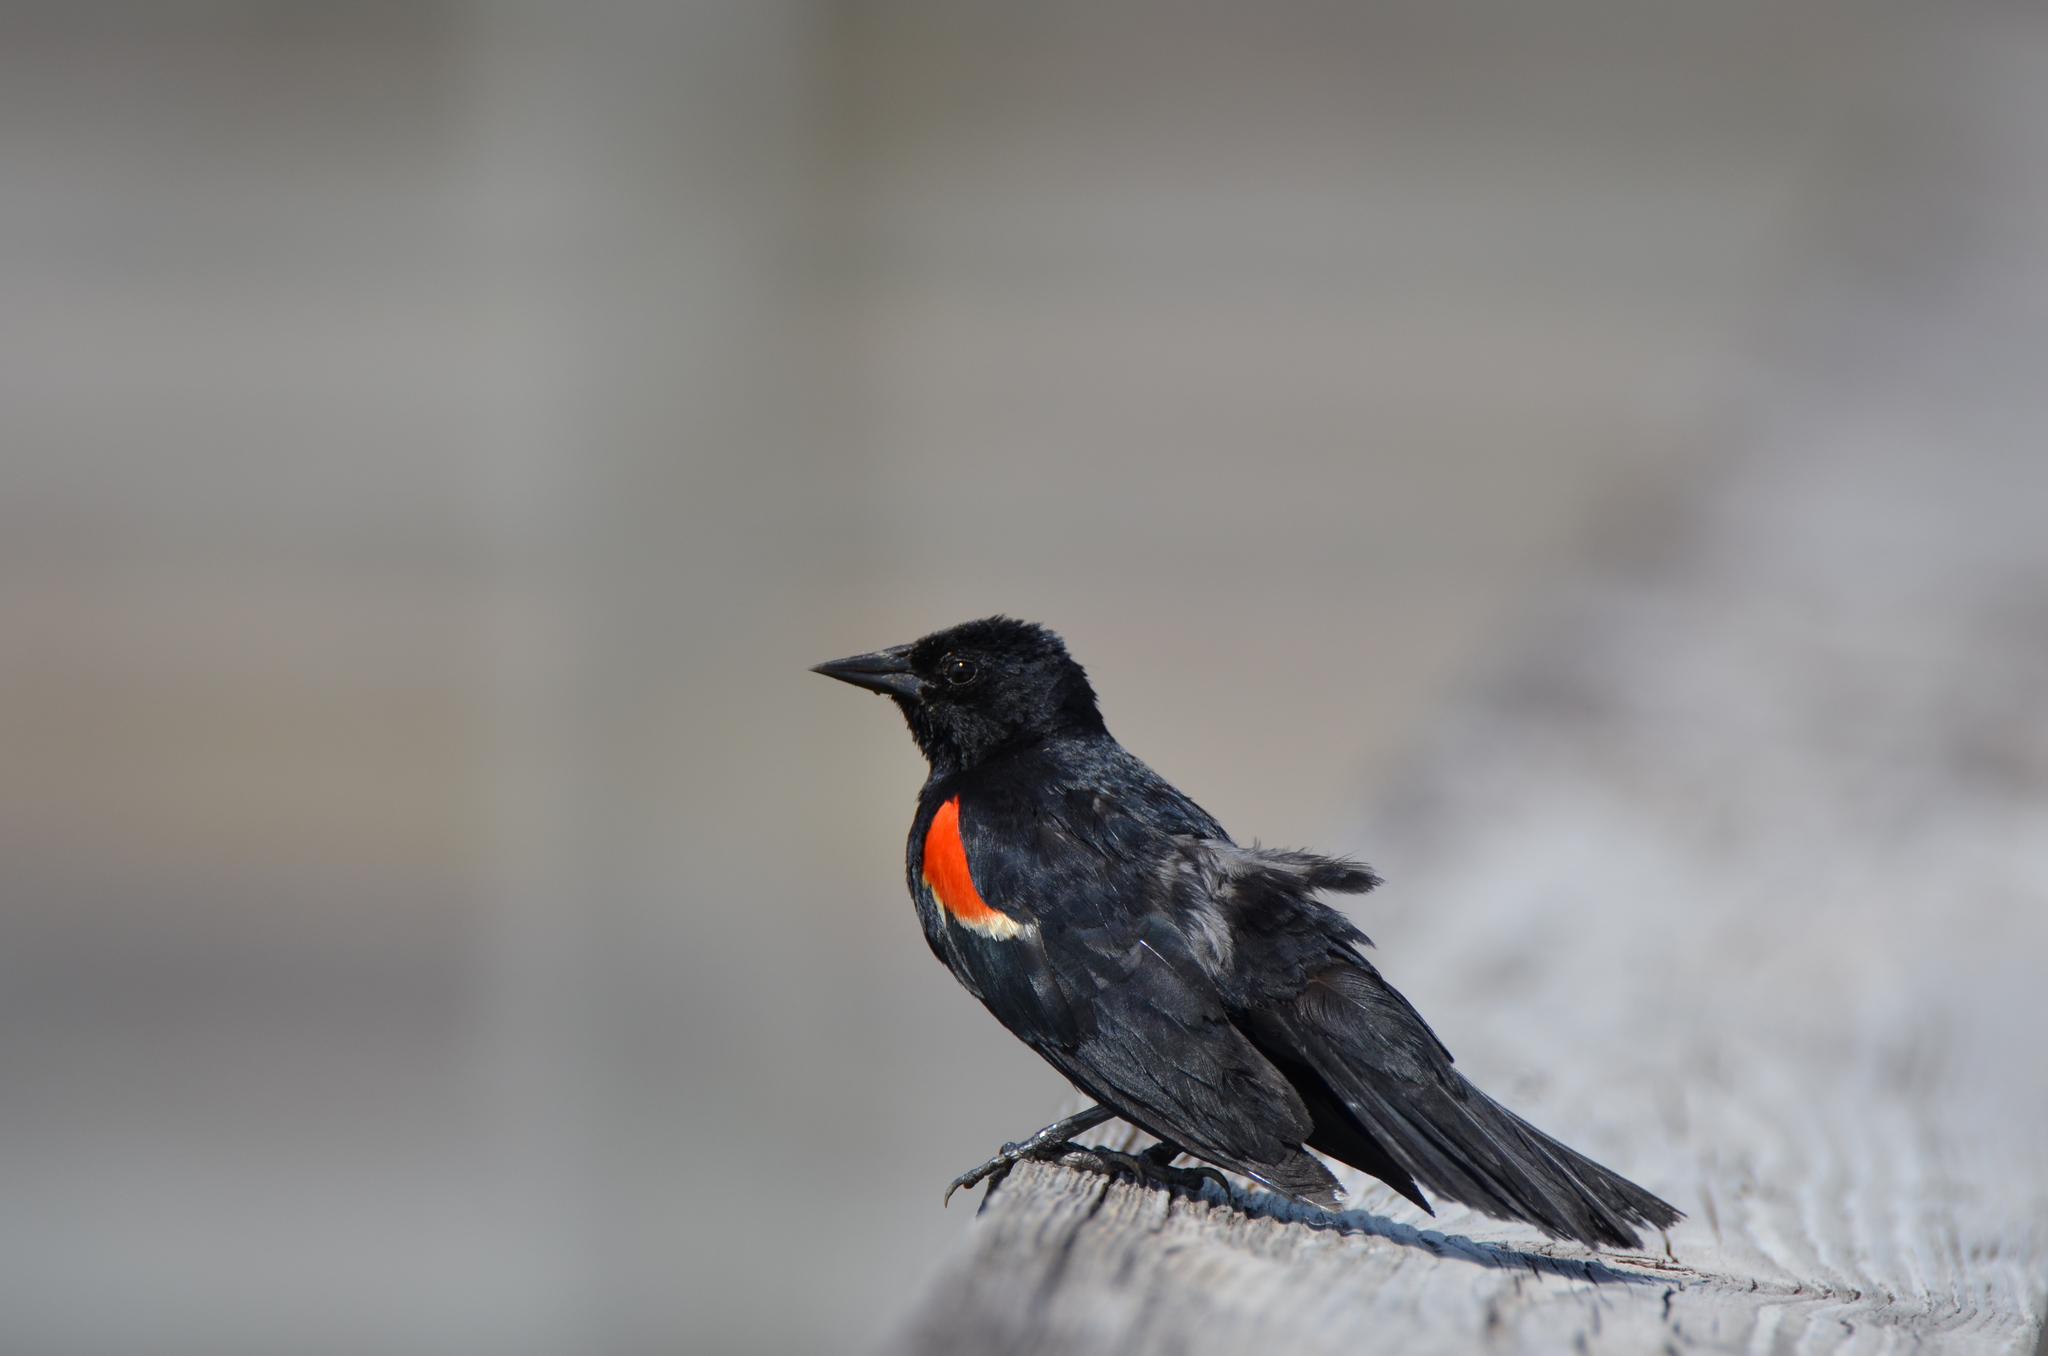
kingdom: Animalia
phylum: Chordata
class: Aves
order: Passeriformes
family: Icteridae
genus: Agelaius
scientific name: Agelaius phoeniceus
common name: Red-winged blackbird
